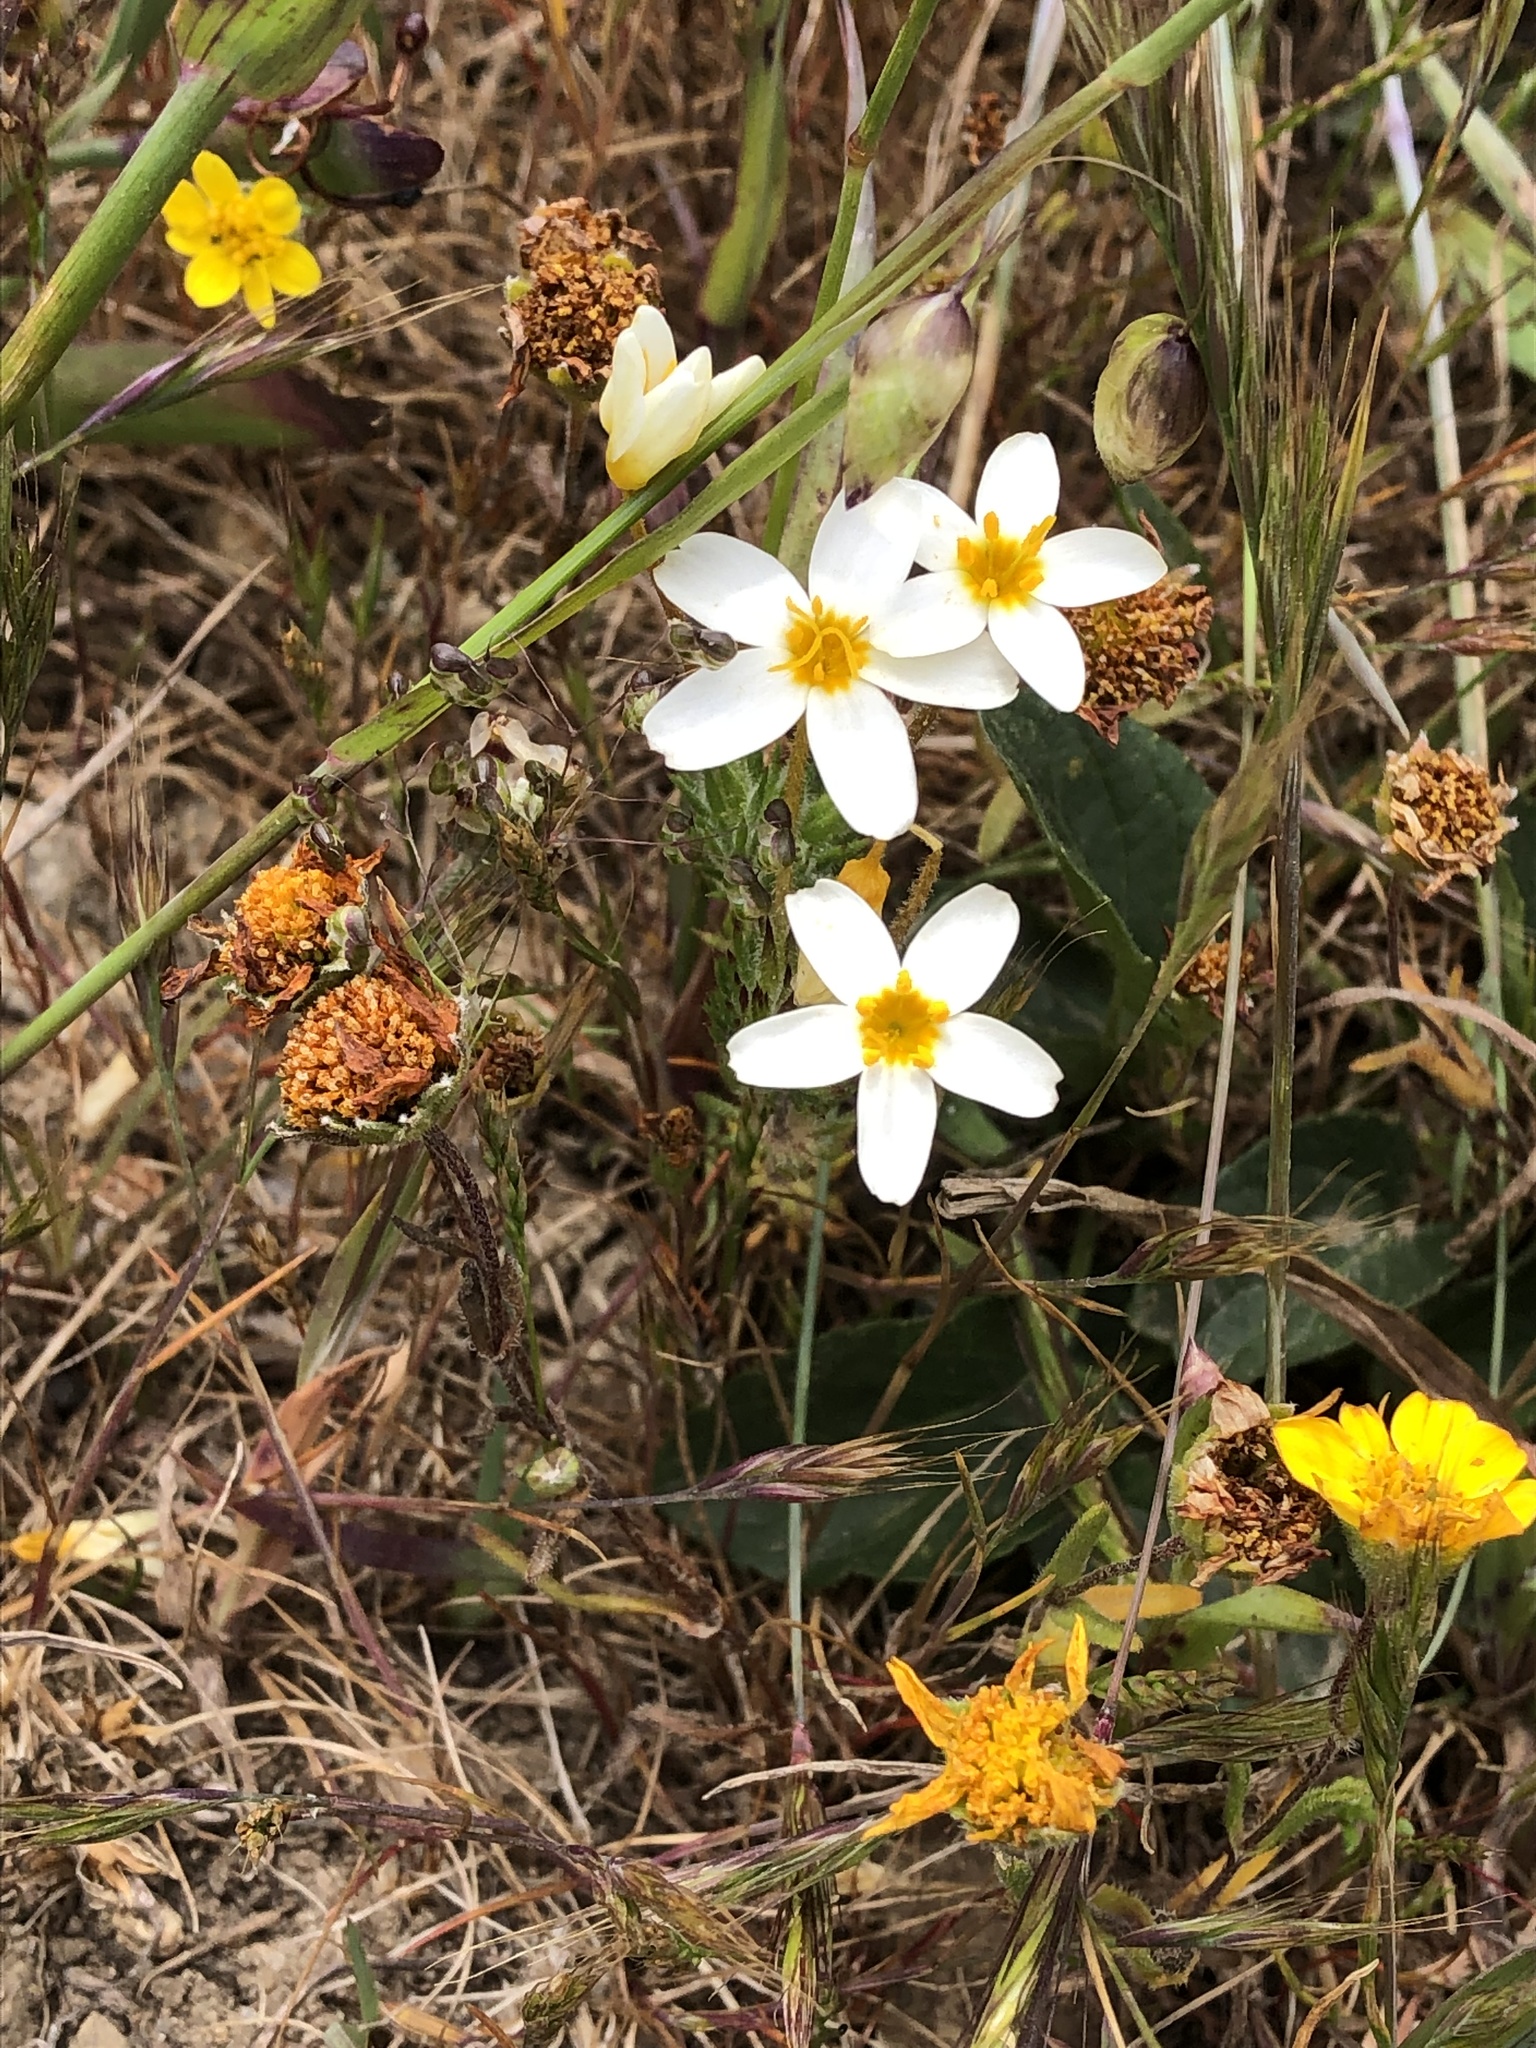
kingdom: Plantae
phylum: Tracheophyta
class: Magnoliopsida
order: Ericales
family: Polemoniaceae
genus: Leptosiphon
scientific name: Leptosiphon parviflorus
